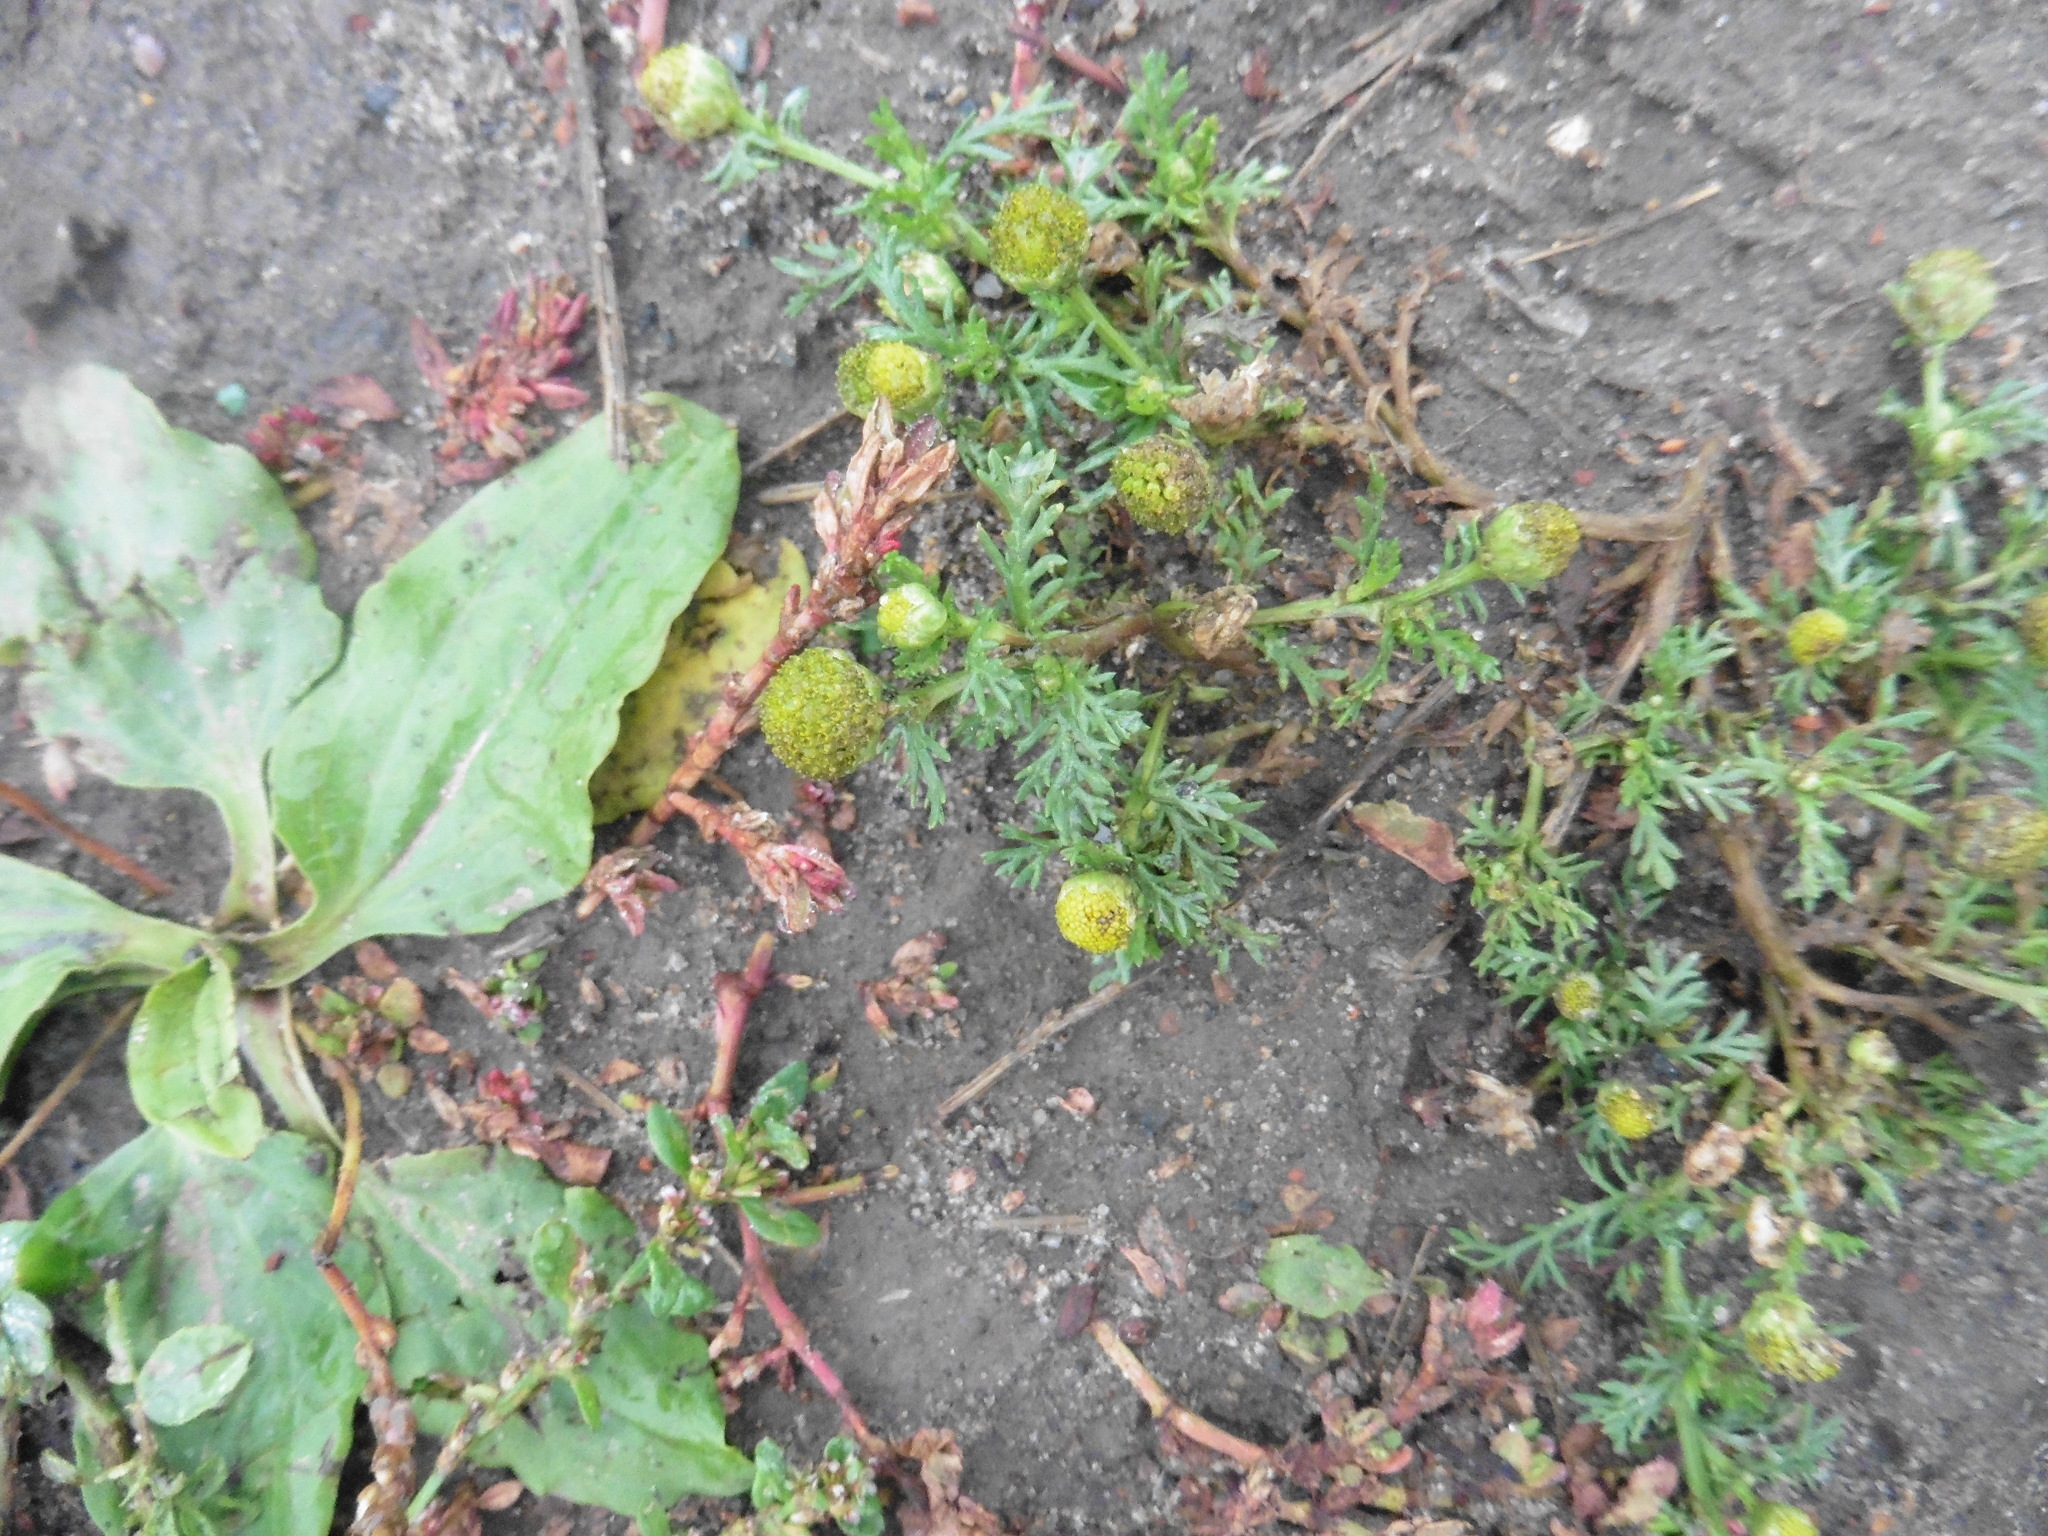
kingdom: Plantae
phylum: Tracheophyta
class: Magnoliopsida
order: Asterales
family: Asteraceae
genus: Matricaria
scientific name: Matricaria discoidea
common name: Disc mayweed
